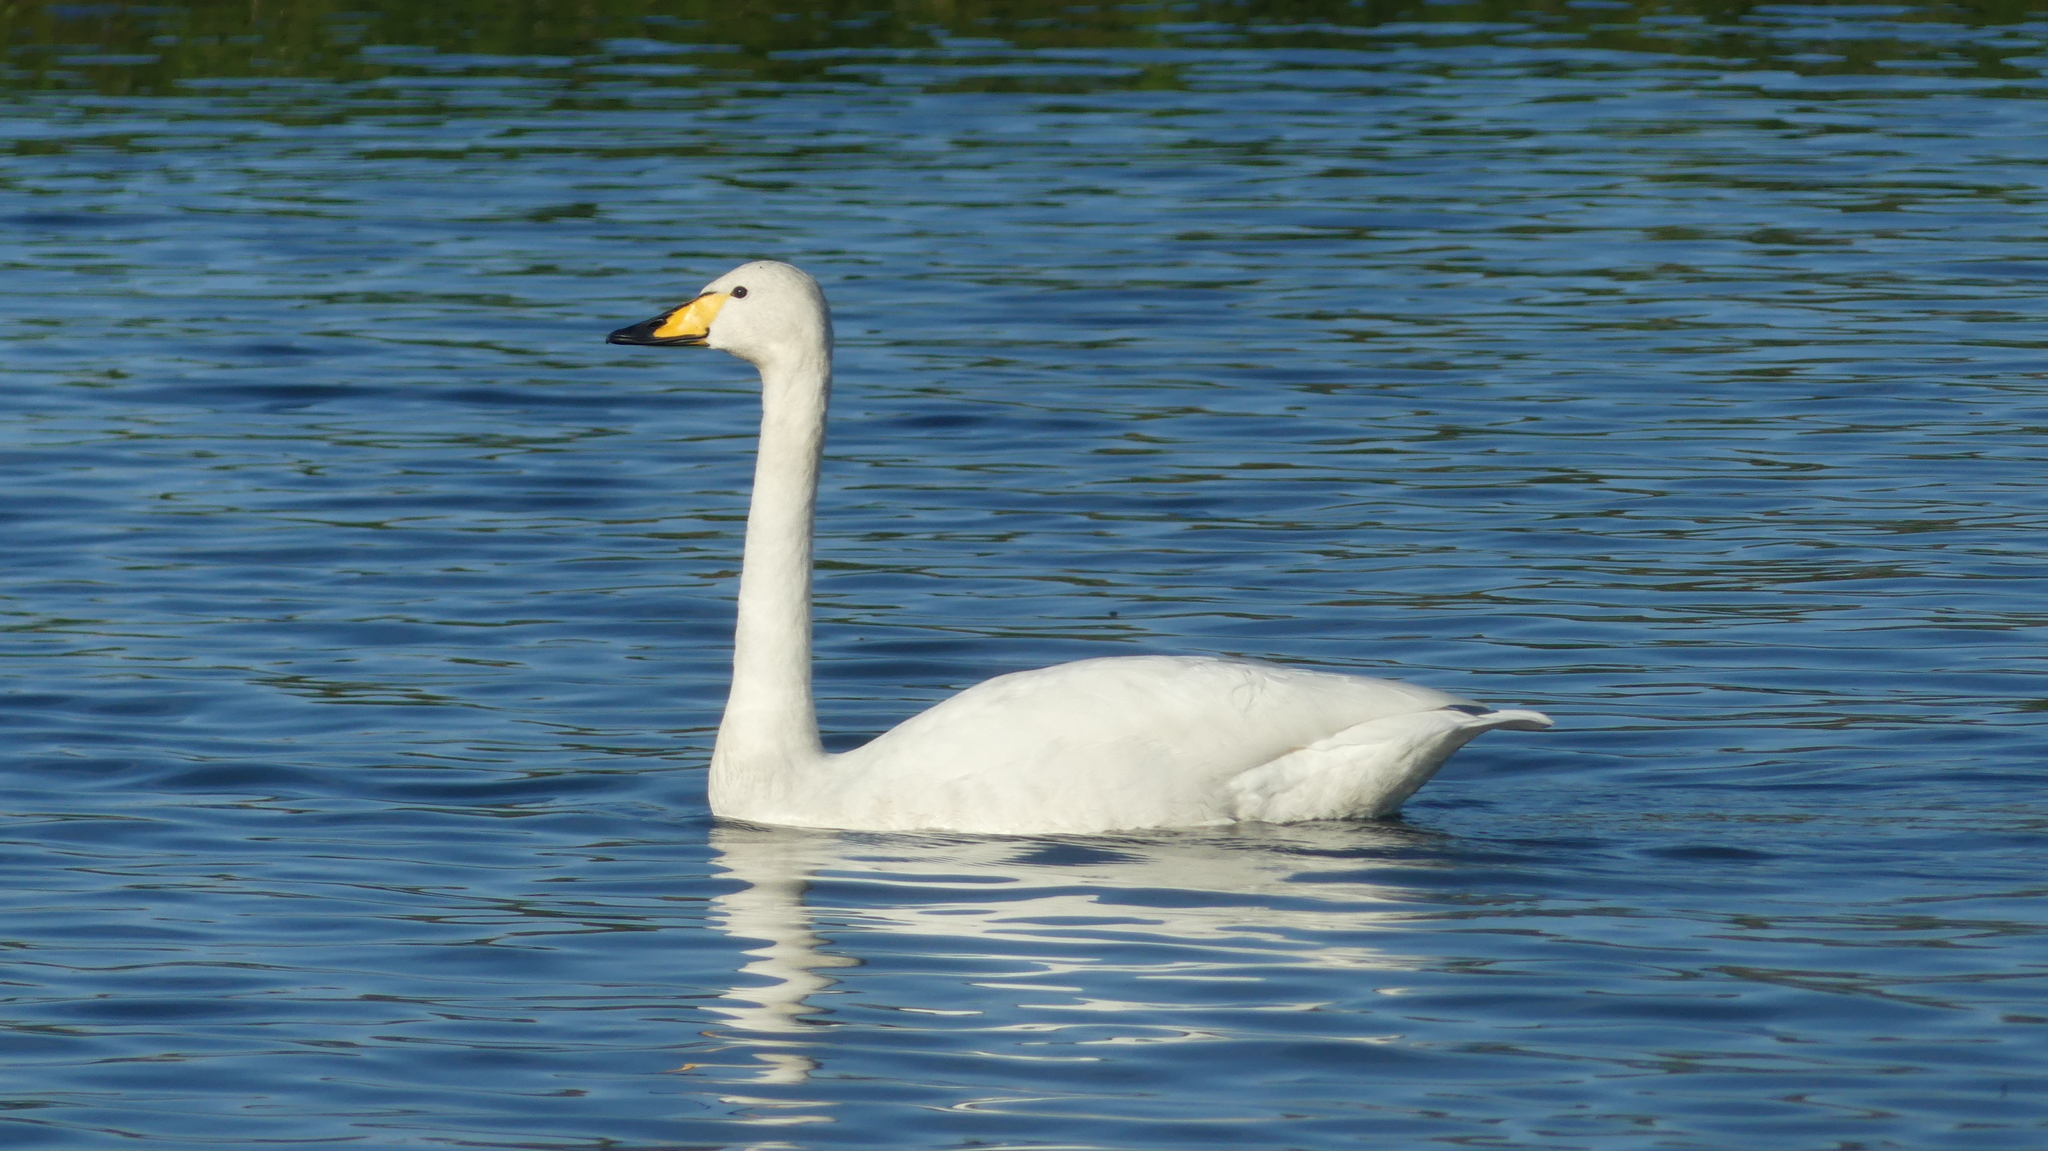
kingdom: Animalia
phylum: Chordata
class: Aves
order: Anseriformes
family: Anatidae
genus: Cygnus
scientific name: Cygnus cygnus
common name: Whooper swan
